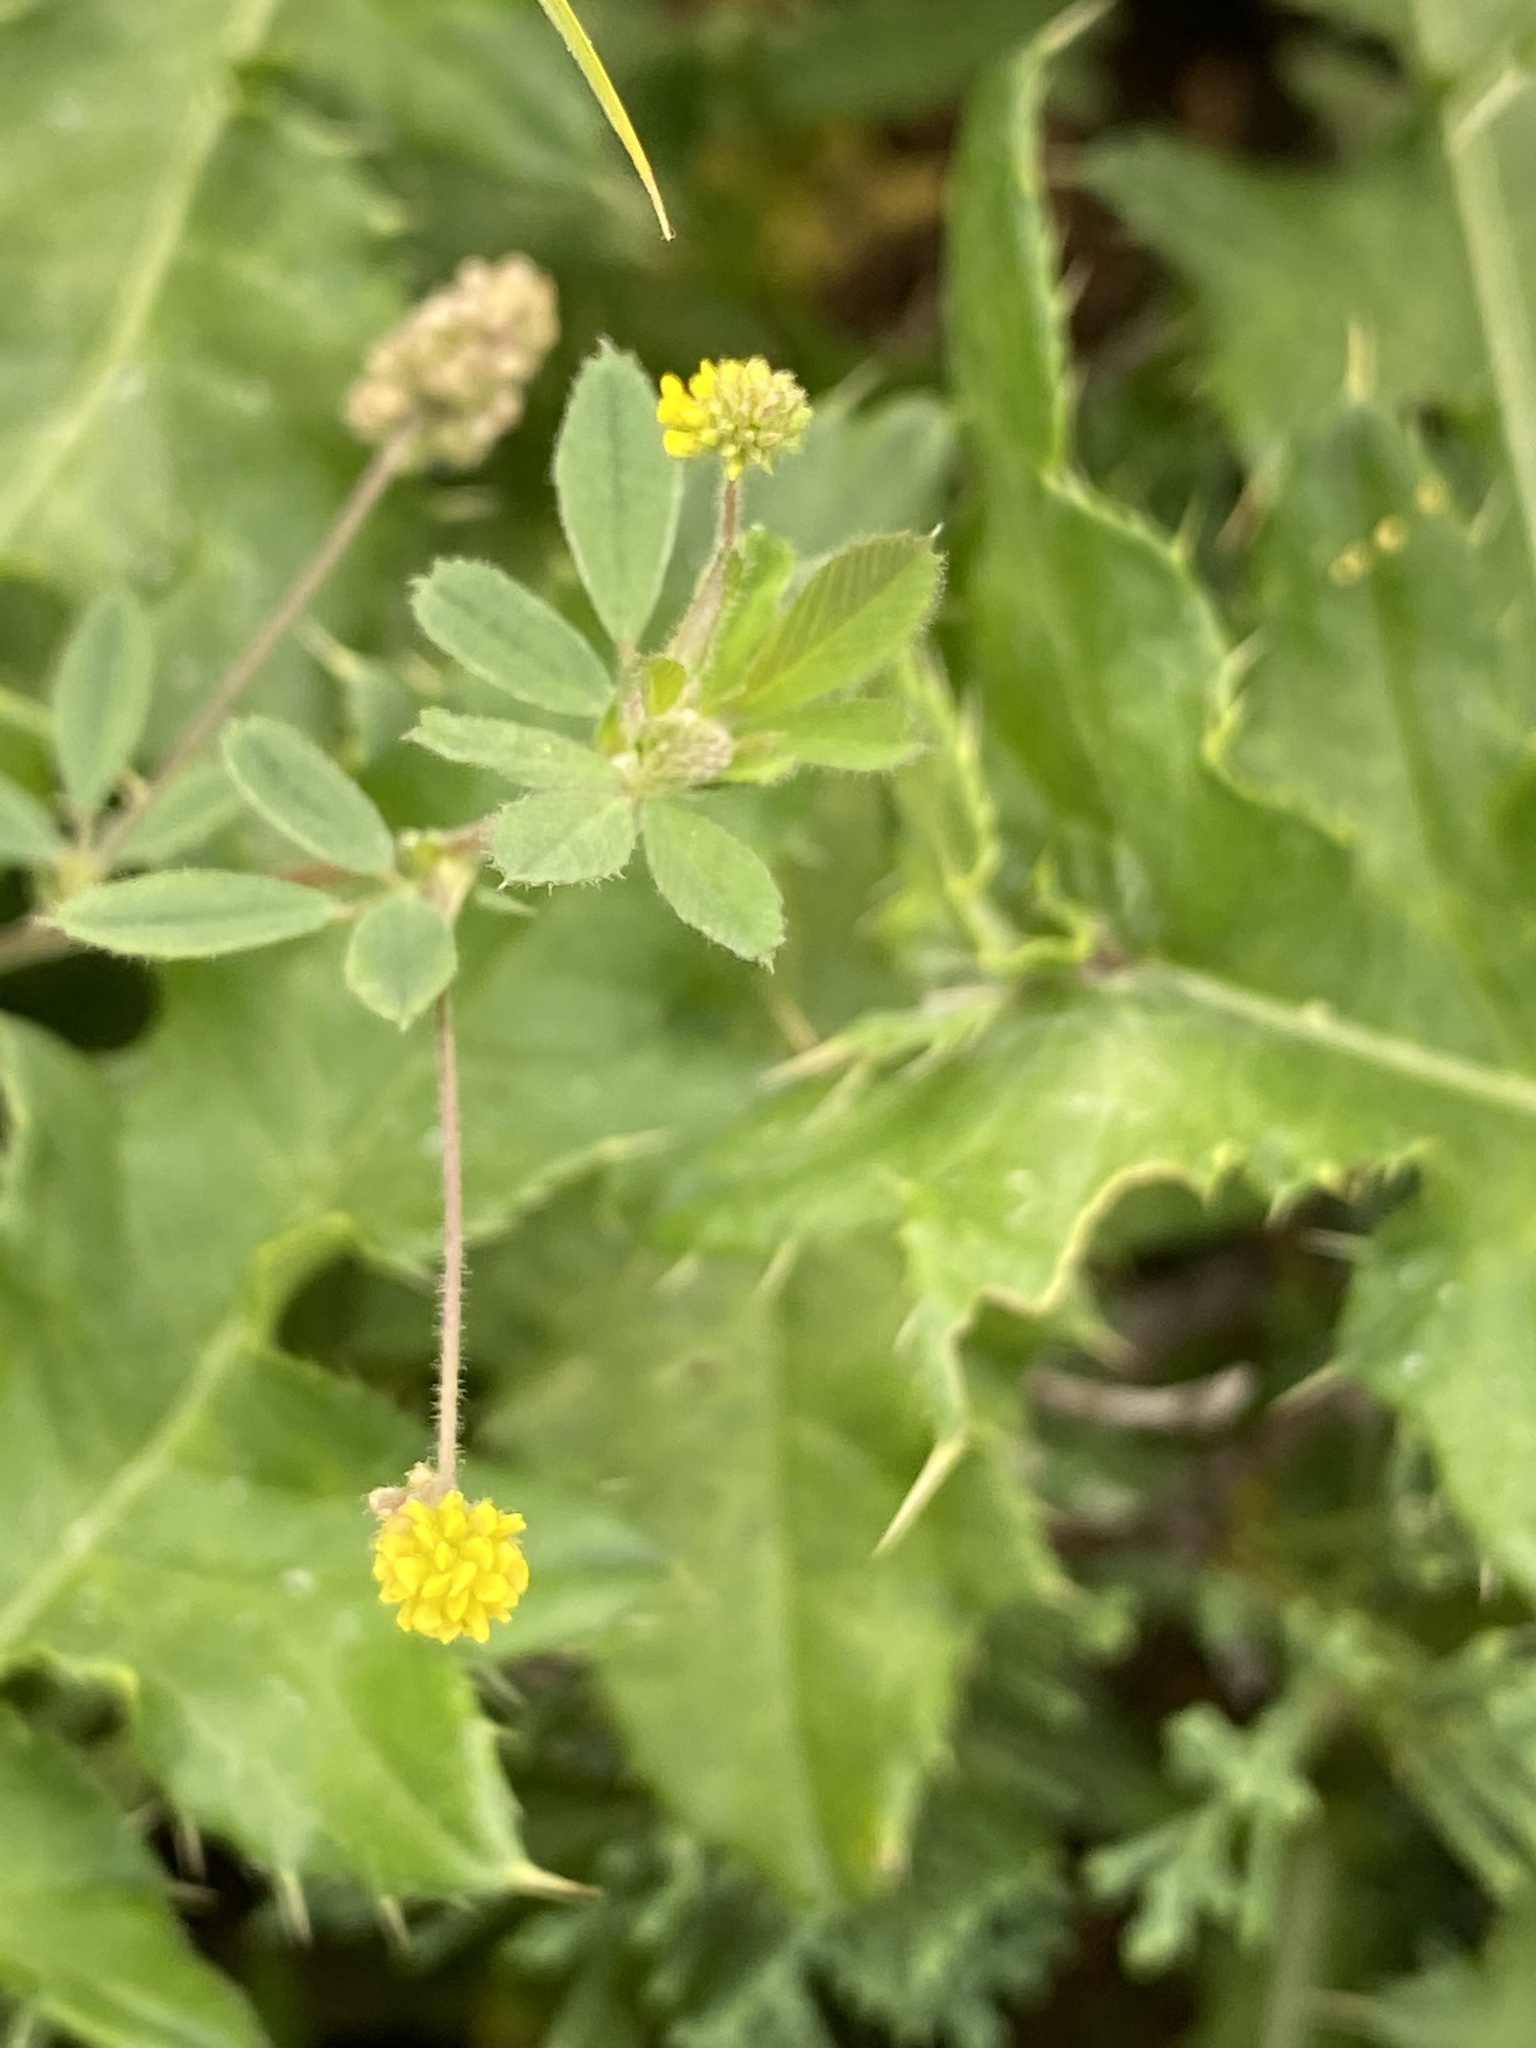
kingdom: Plantae
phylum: Tracheophyta
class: Magnoliopsida
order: Fabales
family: Fabaceae
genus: Medicago
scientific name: Medicago lupulina
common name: Black medick
